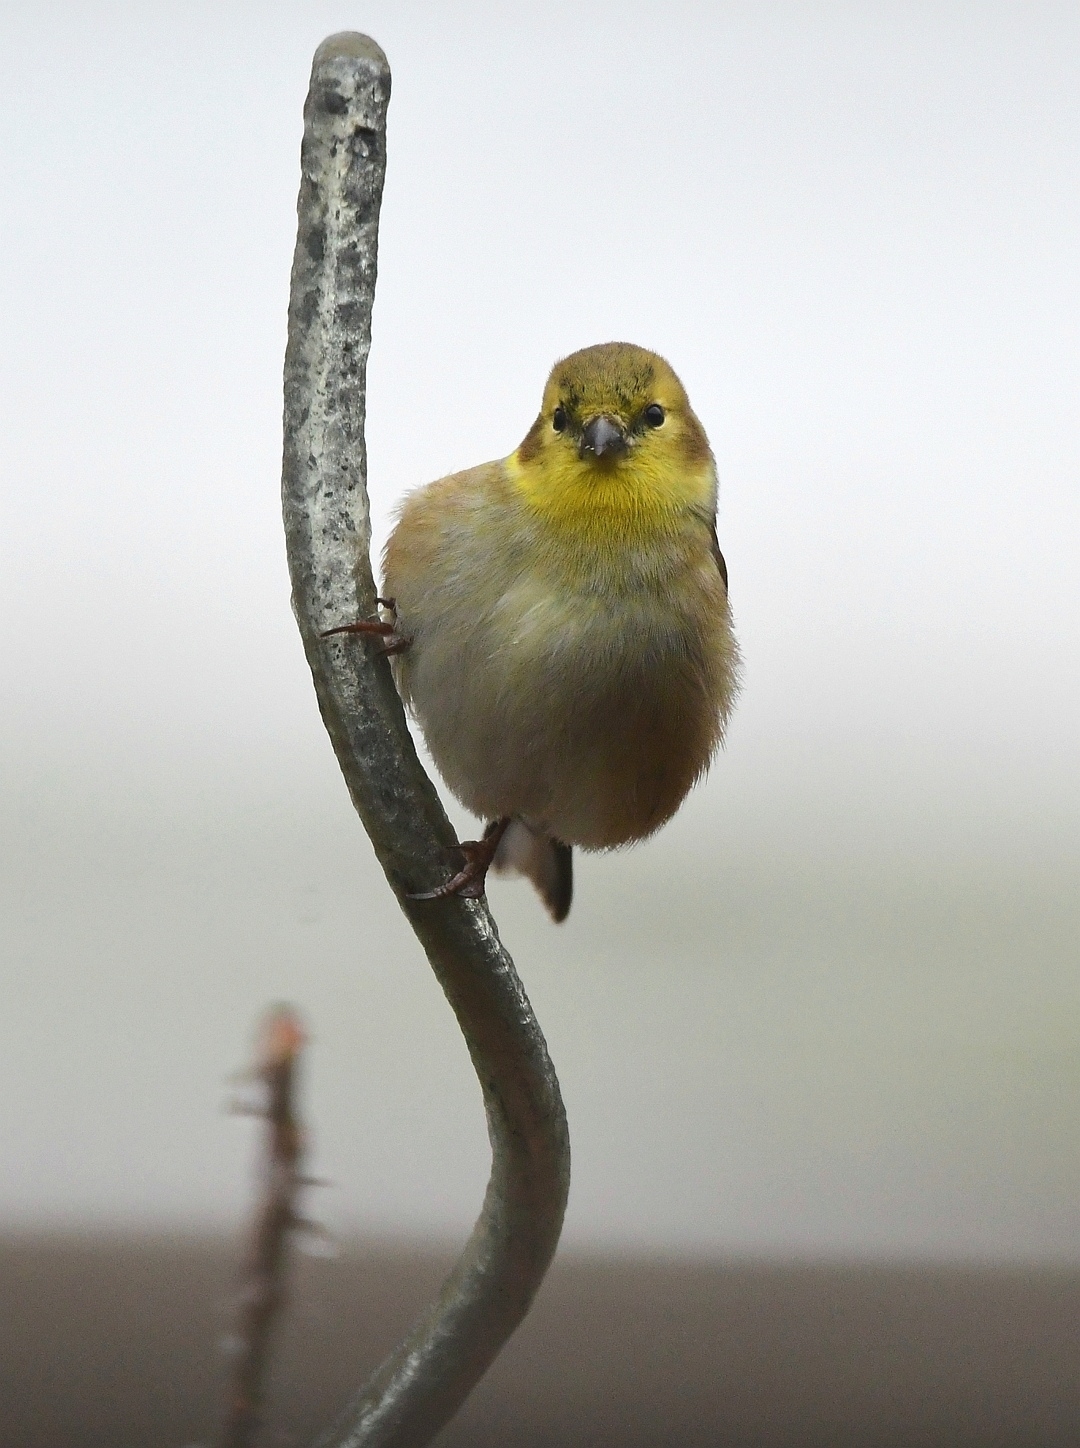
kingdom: Animalia
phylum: Chordata
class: Aves
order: Passeriformes
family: Fringillidae
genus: Spinus
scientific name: Spinus tristis
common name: American goldfinch
